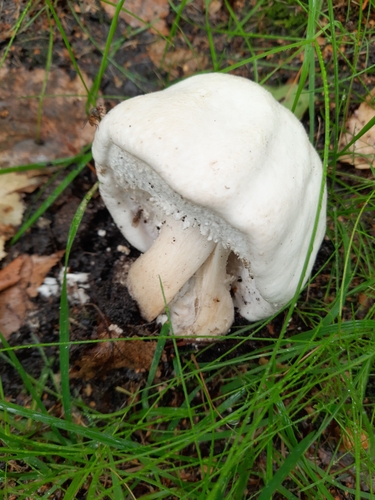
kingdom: Fungi
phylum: Basidiomycota
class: Agaricomycetes
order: Agaricales
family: Agaricaceae
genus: Agaricus
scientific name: Agaricus sylvicola
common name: Wood mushroom
